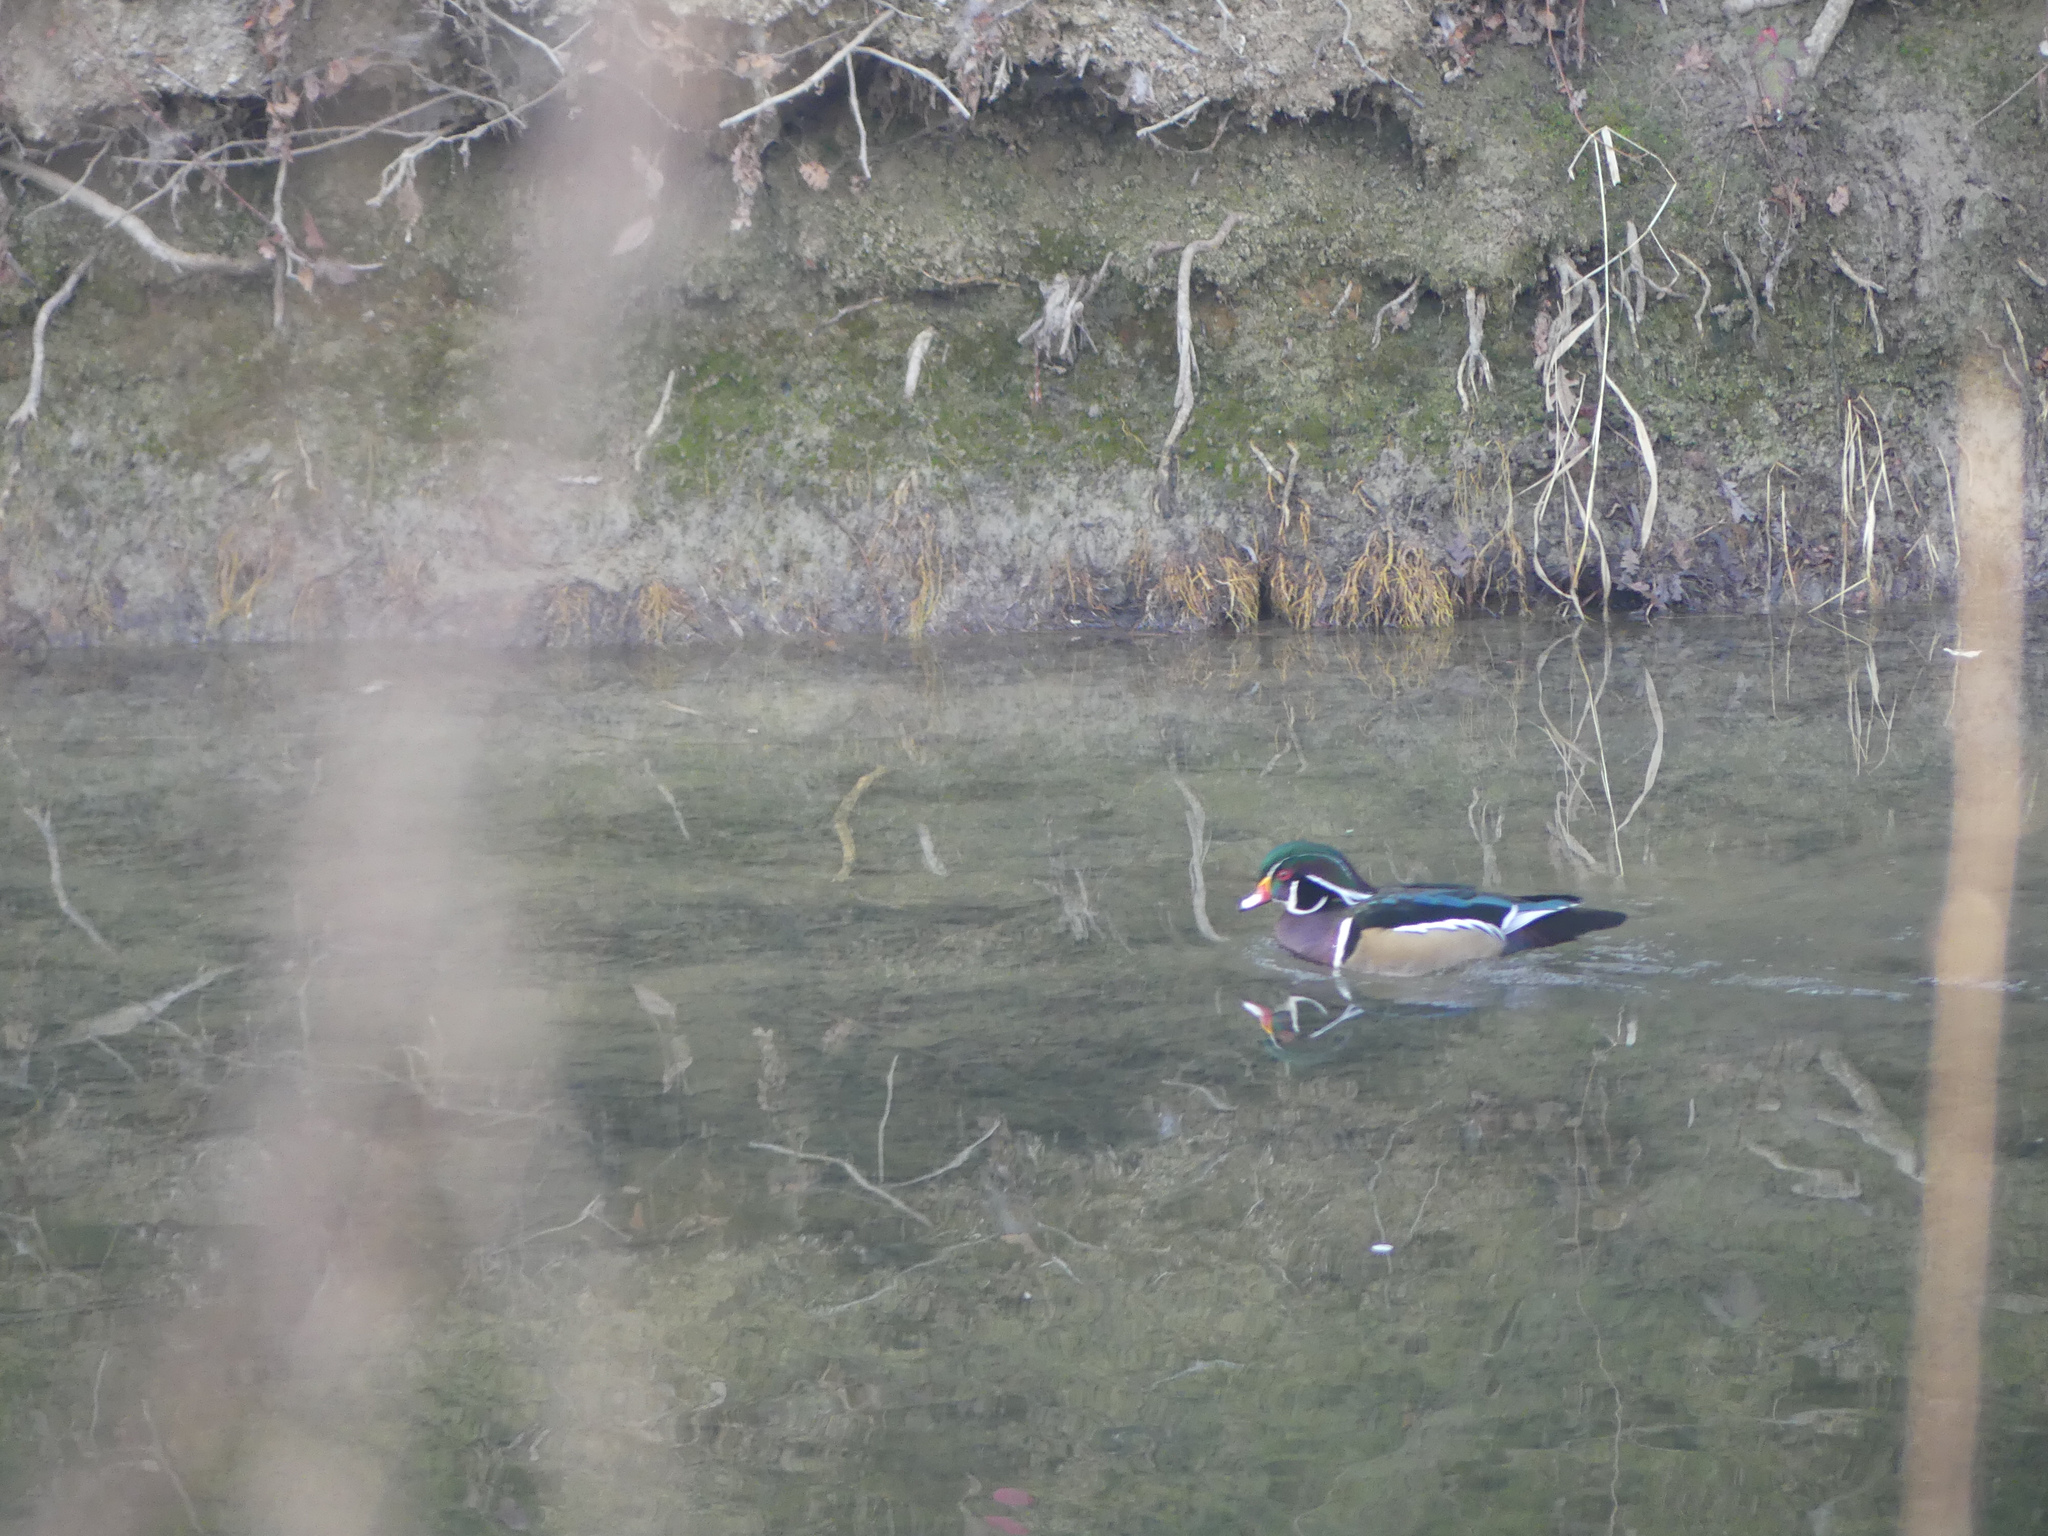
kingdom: Animalia
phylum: Chordata
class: Aves
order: Anseriformes
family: Anatidae
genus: Aix
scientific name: Aix sponsa
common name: Wood duck
